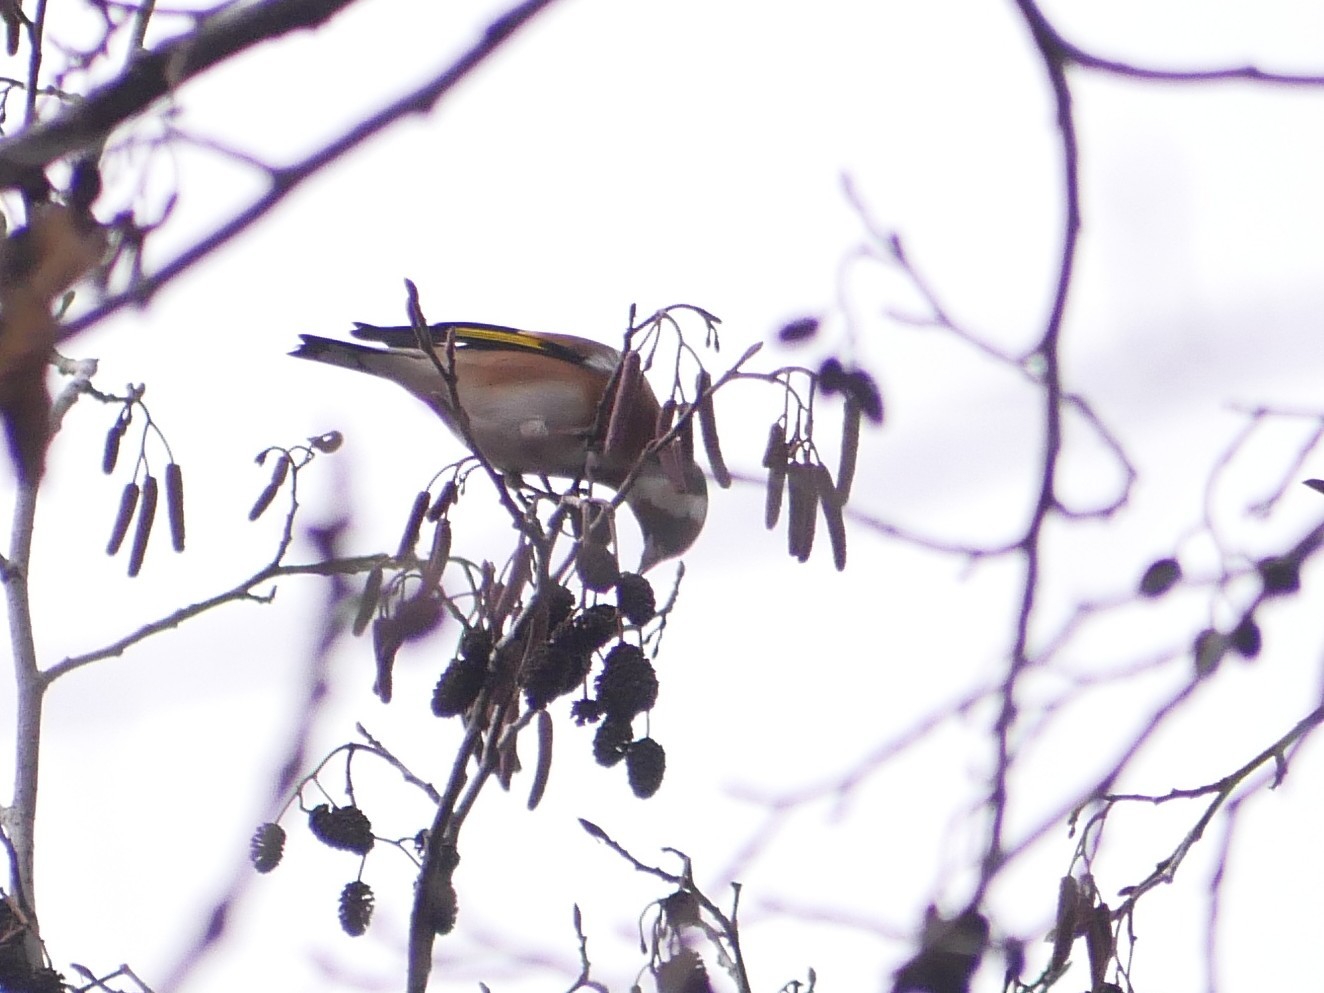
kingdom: Animalia
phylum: Chordata
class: Aves
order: Passeriformes
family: Fringillidae
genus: Carduelis
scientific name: Carduelis carduelis
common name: European goldfinch
